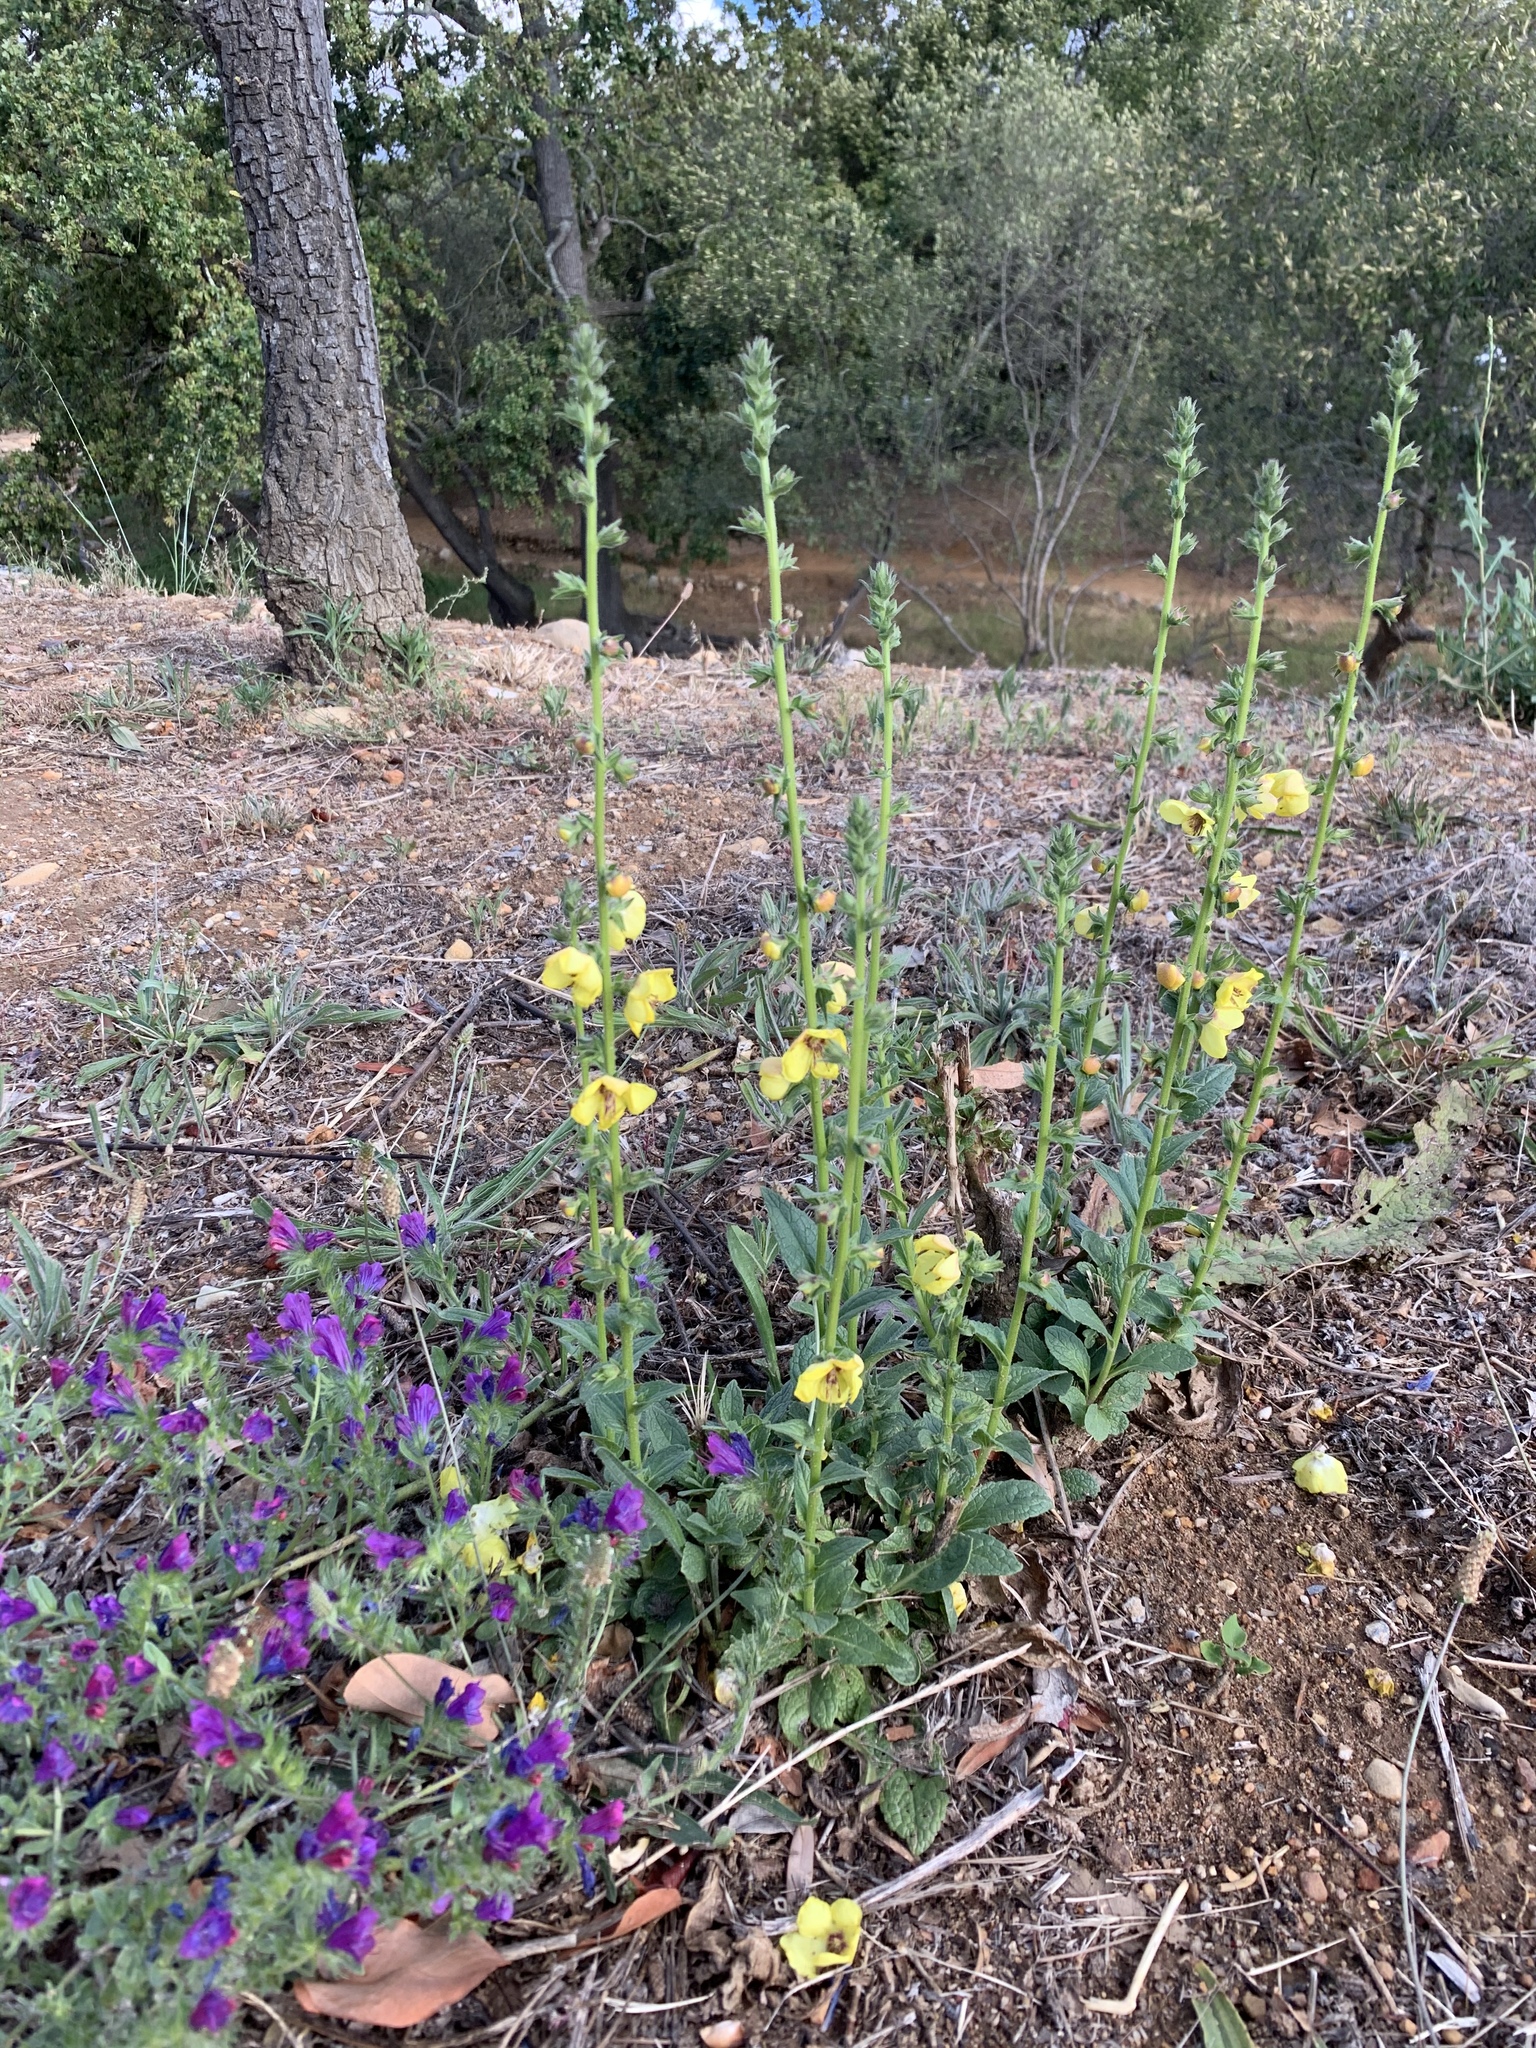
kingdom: Plantae
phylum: Tracheophyta
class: Magnoliopsida
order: Lamiales
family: Scrophulariaceae
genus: Verbascum
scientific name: Verbascum virgatum
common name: Twiggy mullein
